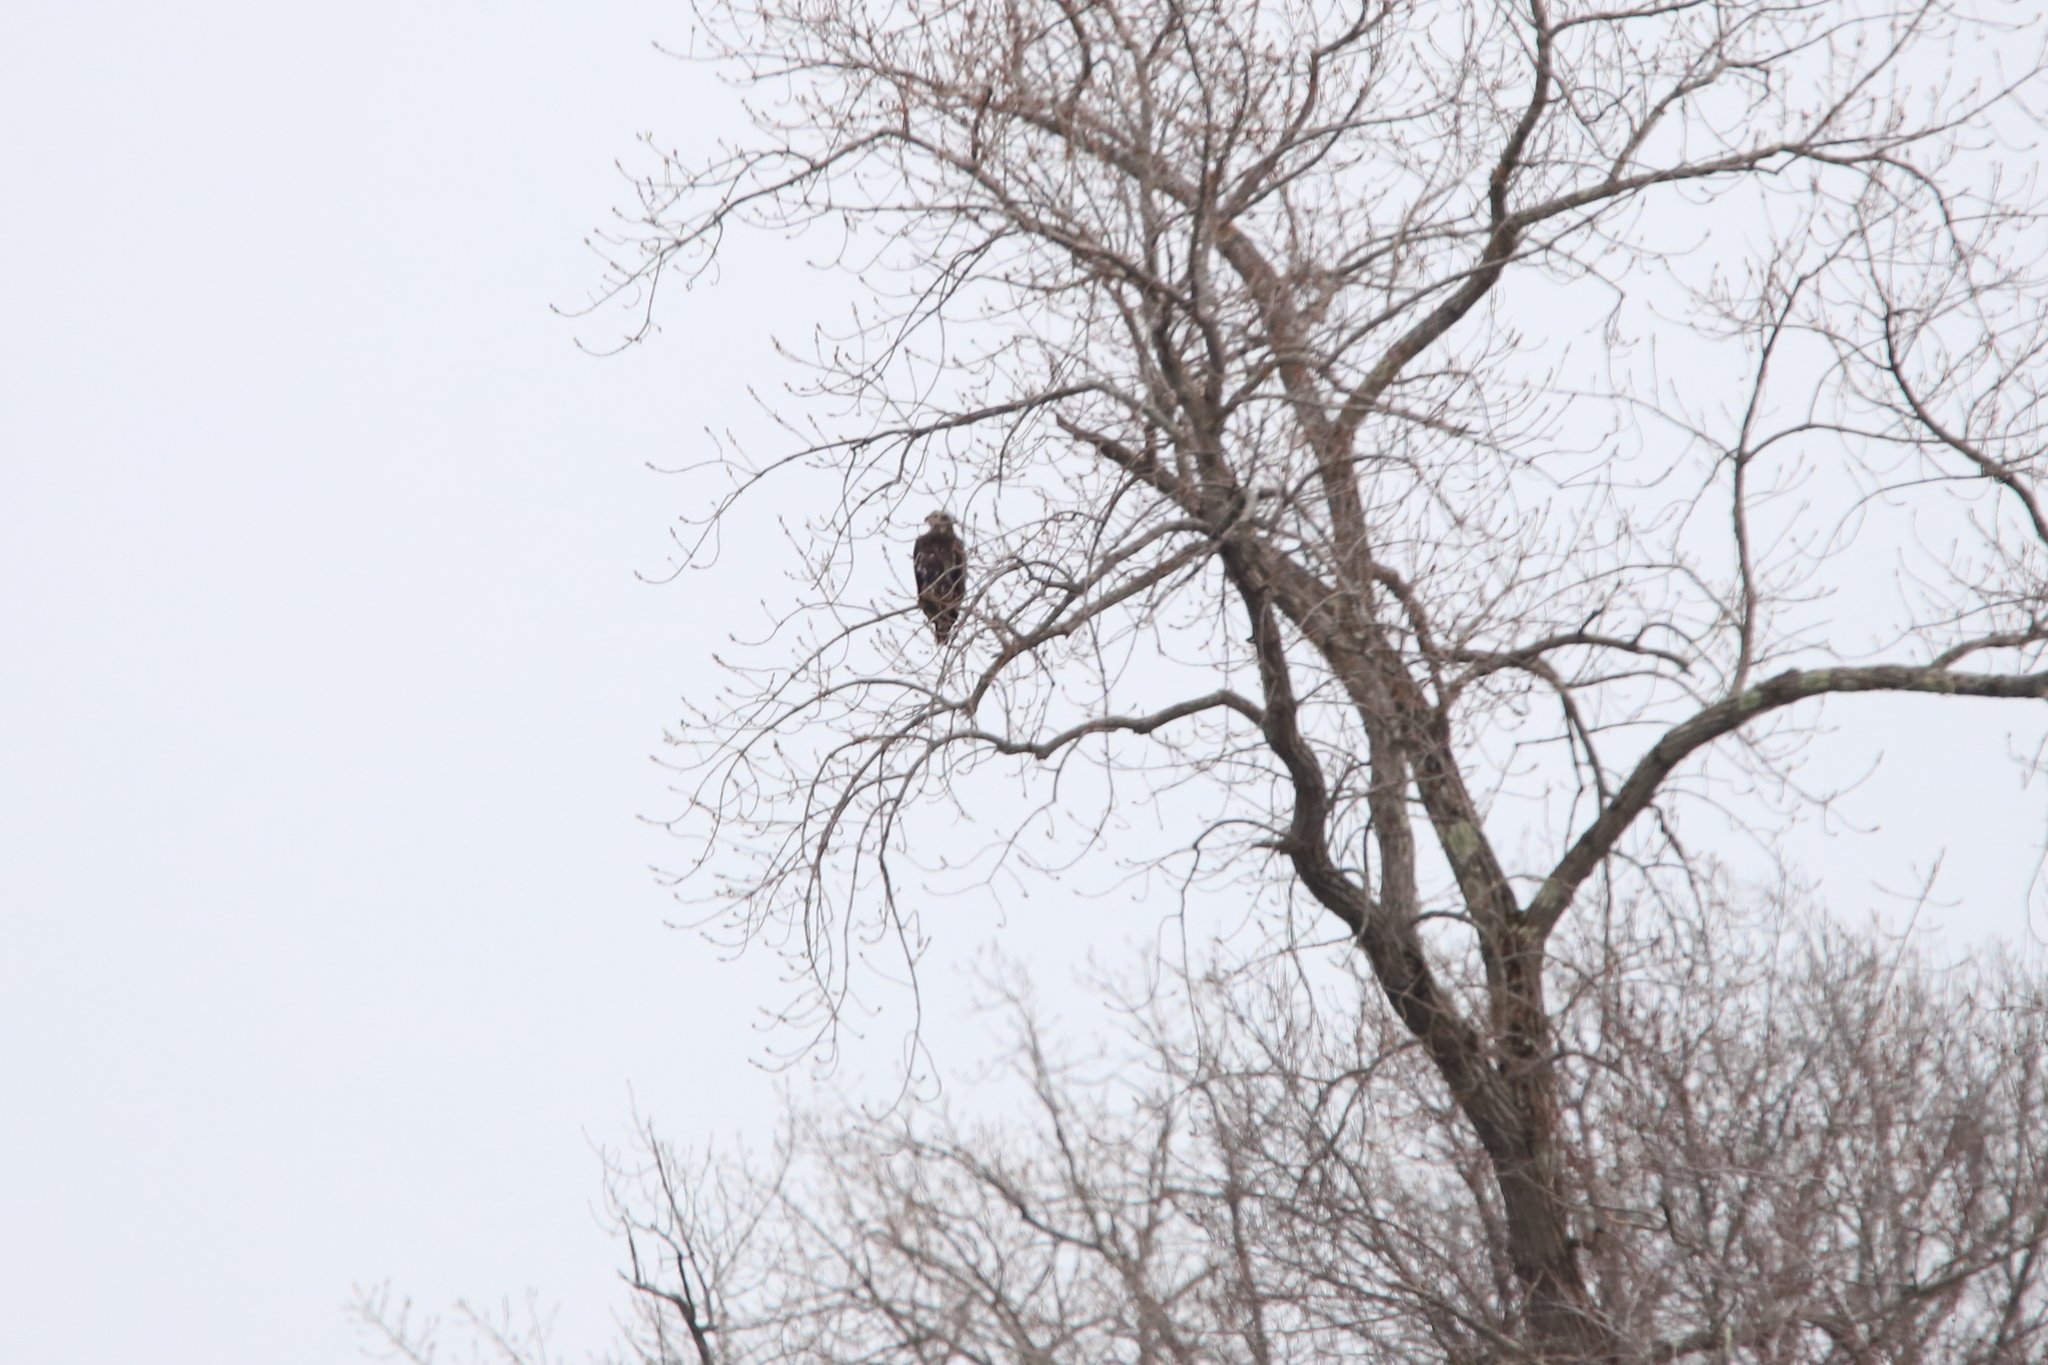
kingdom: Animalia
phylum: Chordata
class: Aves
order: Accipitriformes
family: Accipitridae
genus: Haliaeetus
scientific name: Haliaeetus leucocephalus
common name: Bald eagle
